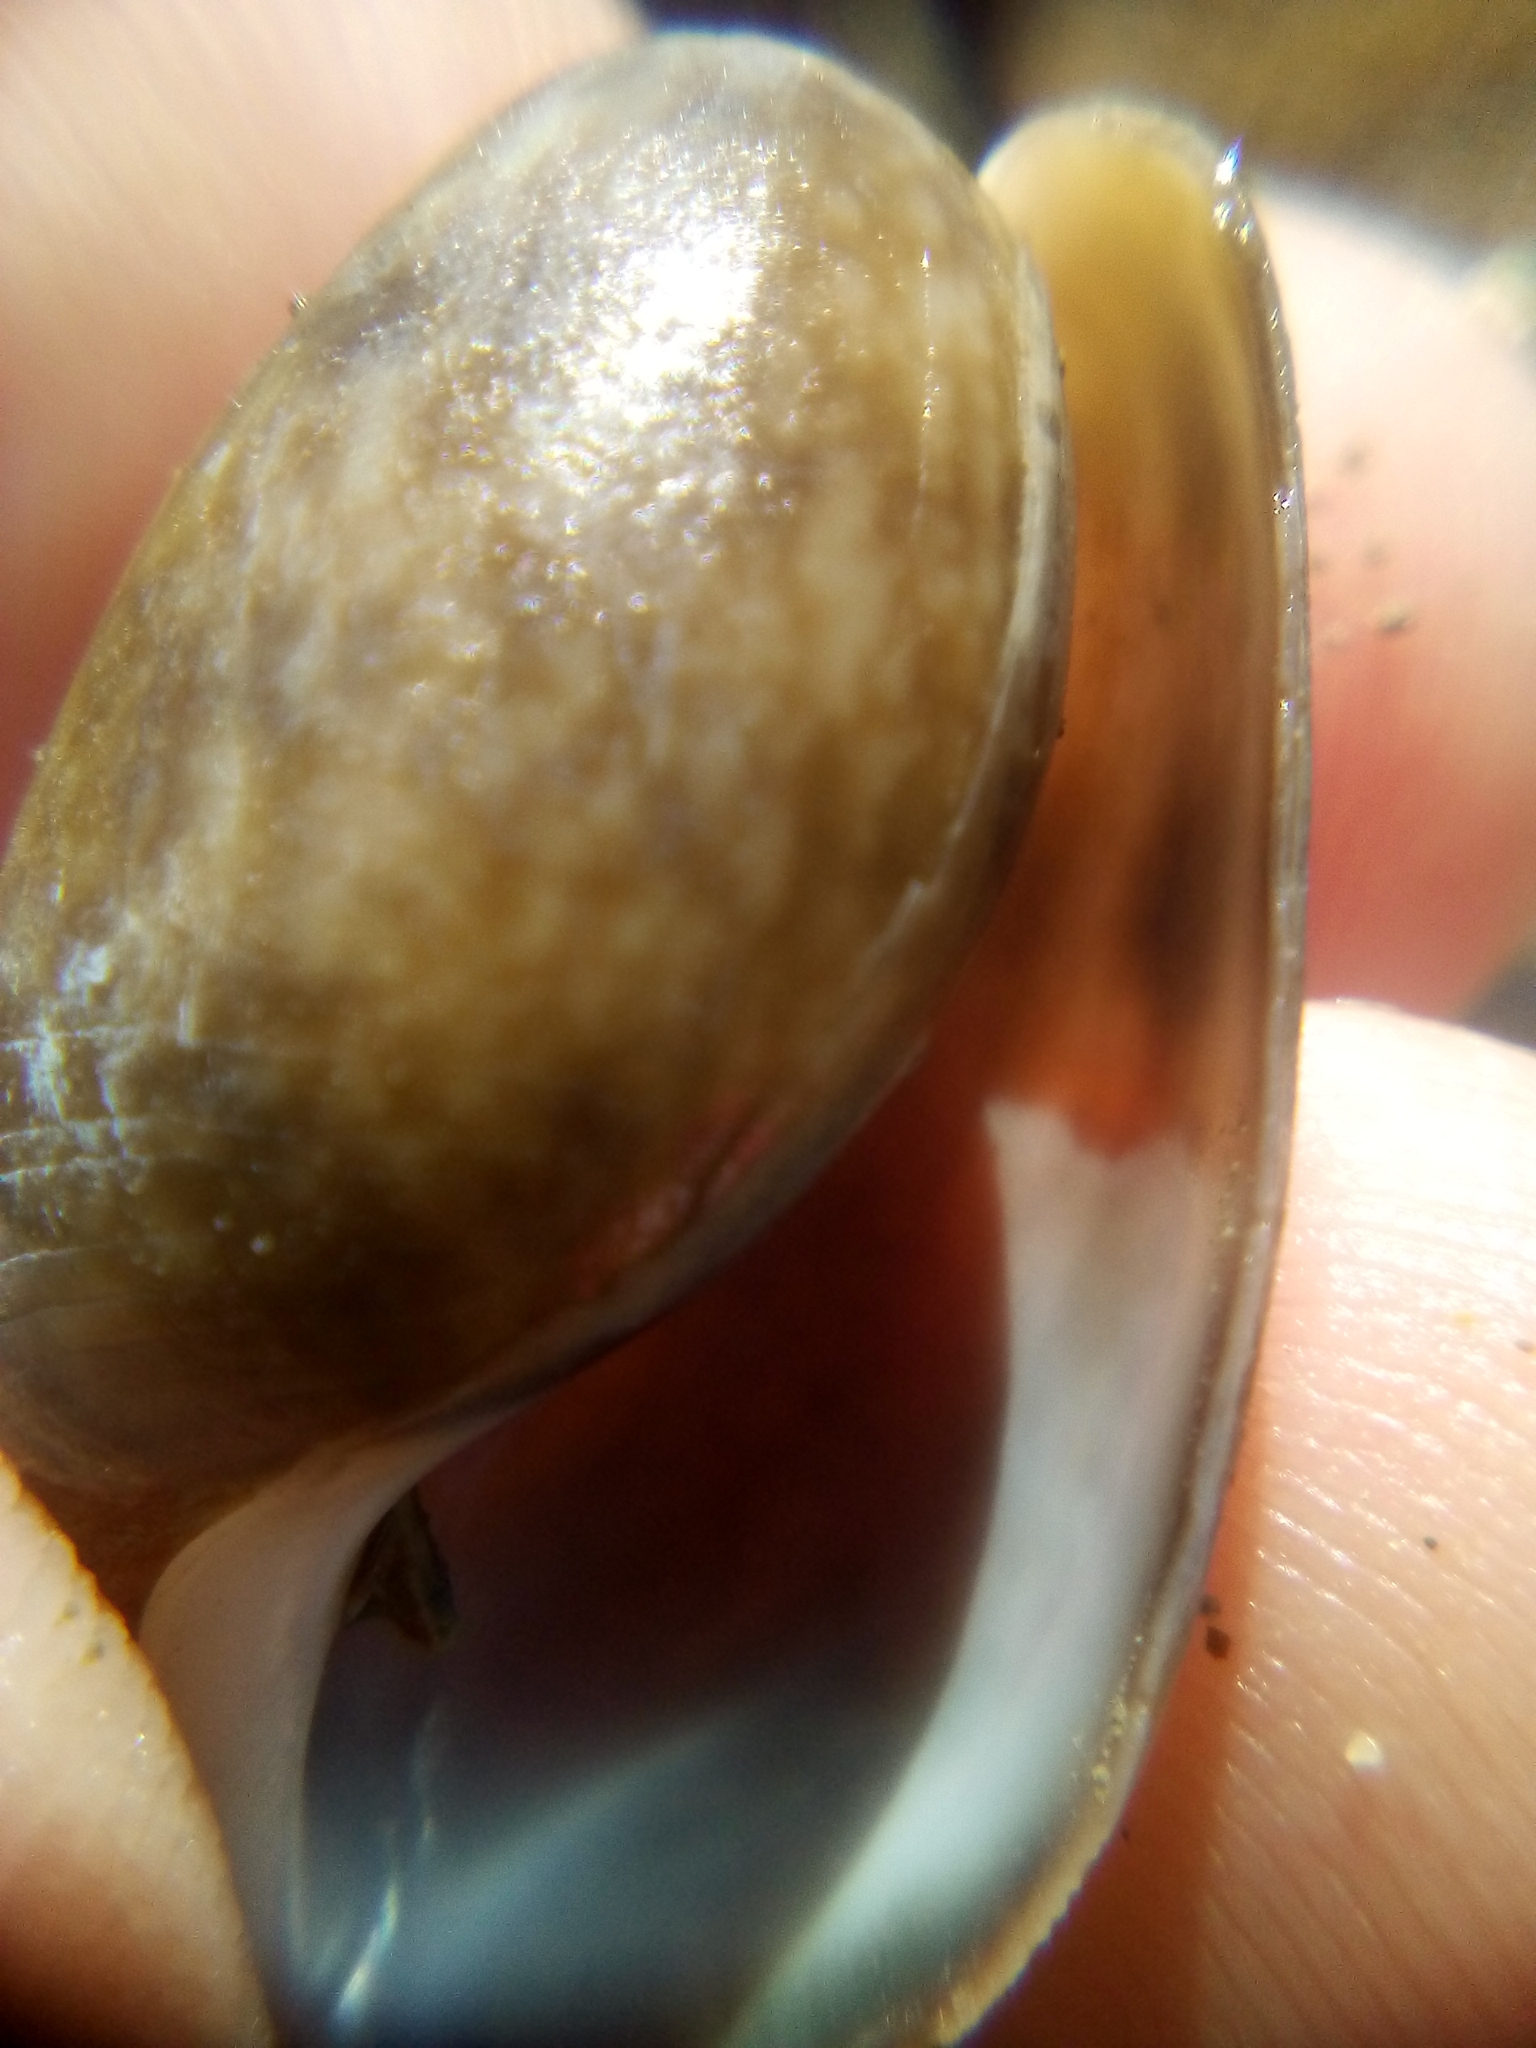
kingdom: Animalia
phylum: Mollusca
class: Gastropoda
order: Cephalaspidea
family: Bullidae
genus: Bulla
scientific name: Bulla quoyii
